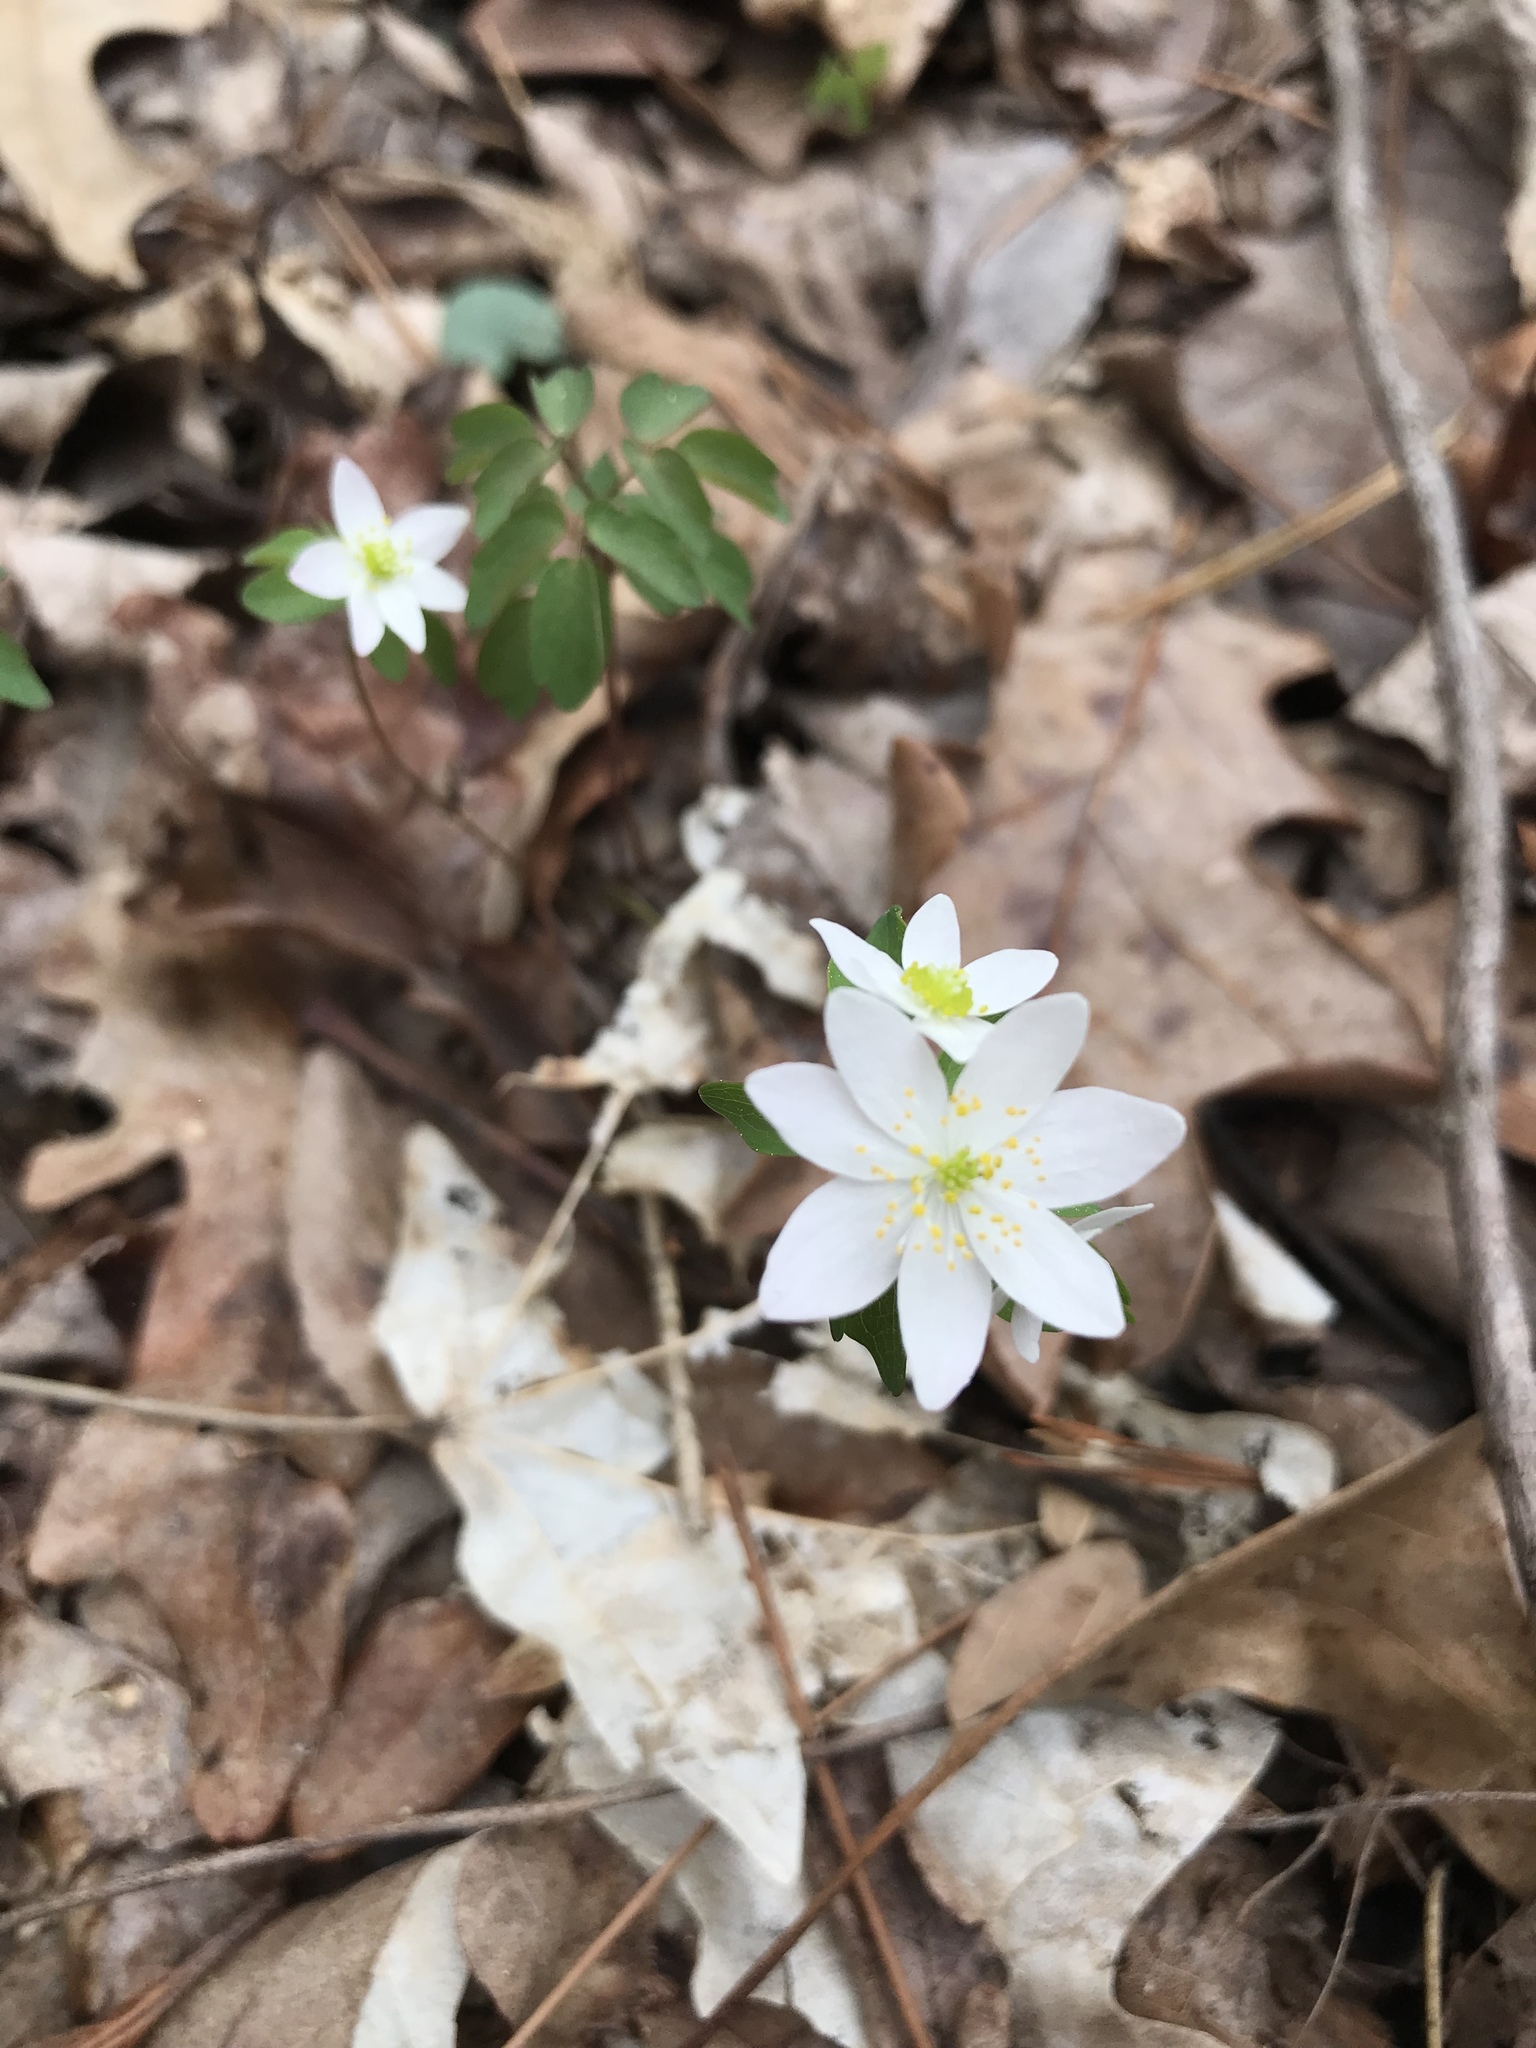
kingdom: Plantae
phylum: Tracheophyta
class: Magnoliopsida
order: Ranunculales
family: Ranunculaceae
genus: Thalictrum
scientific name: Thalictrum thalictroides
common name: Rue-anemone
